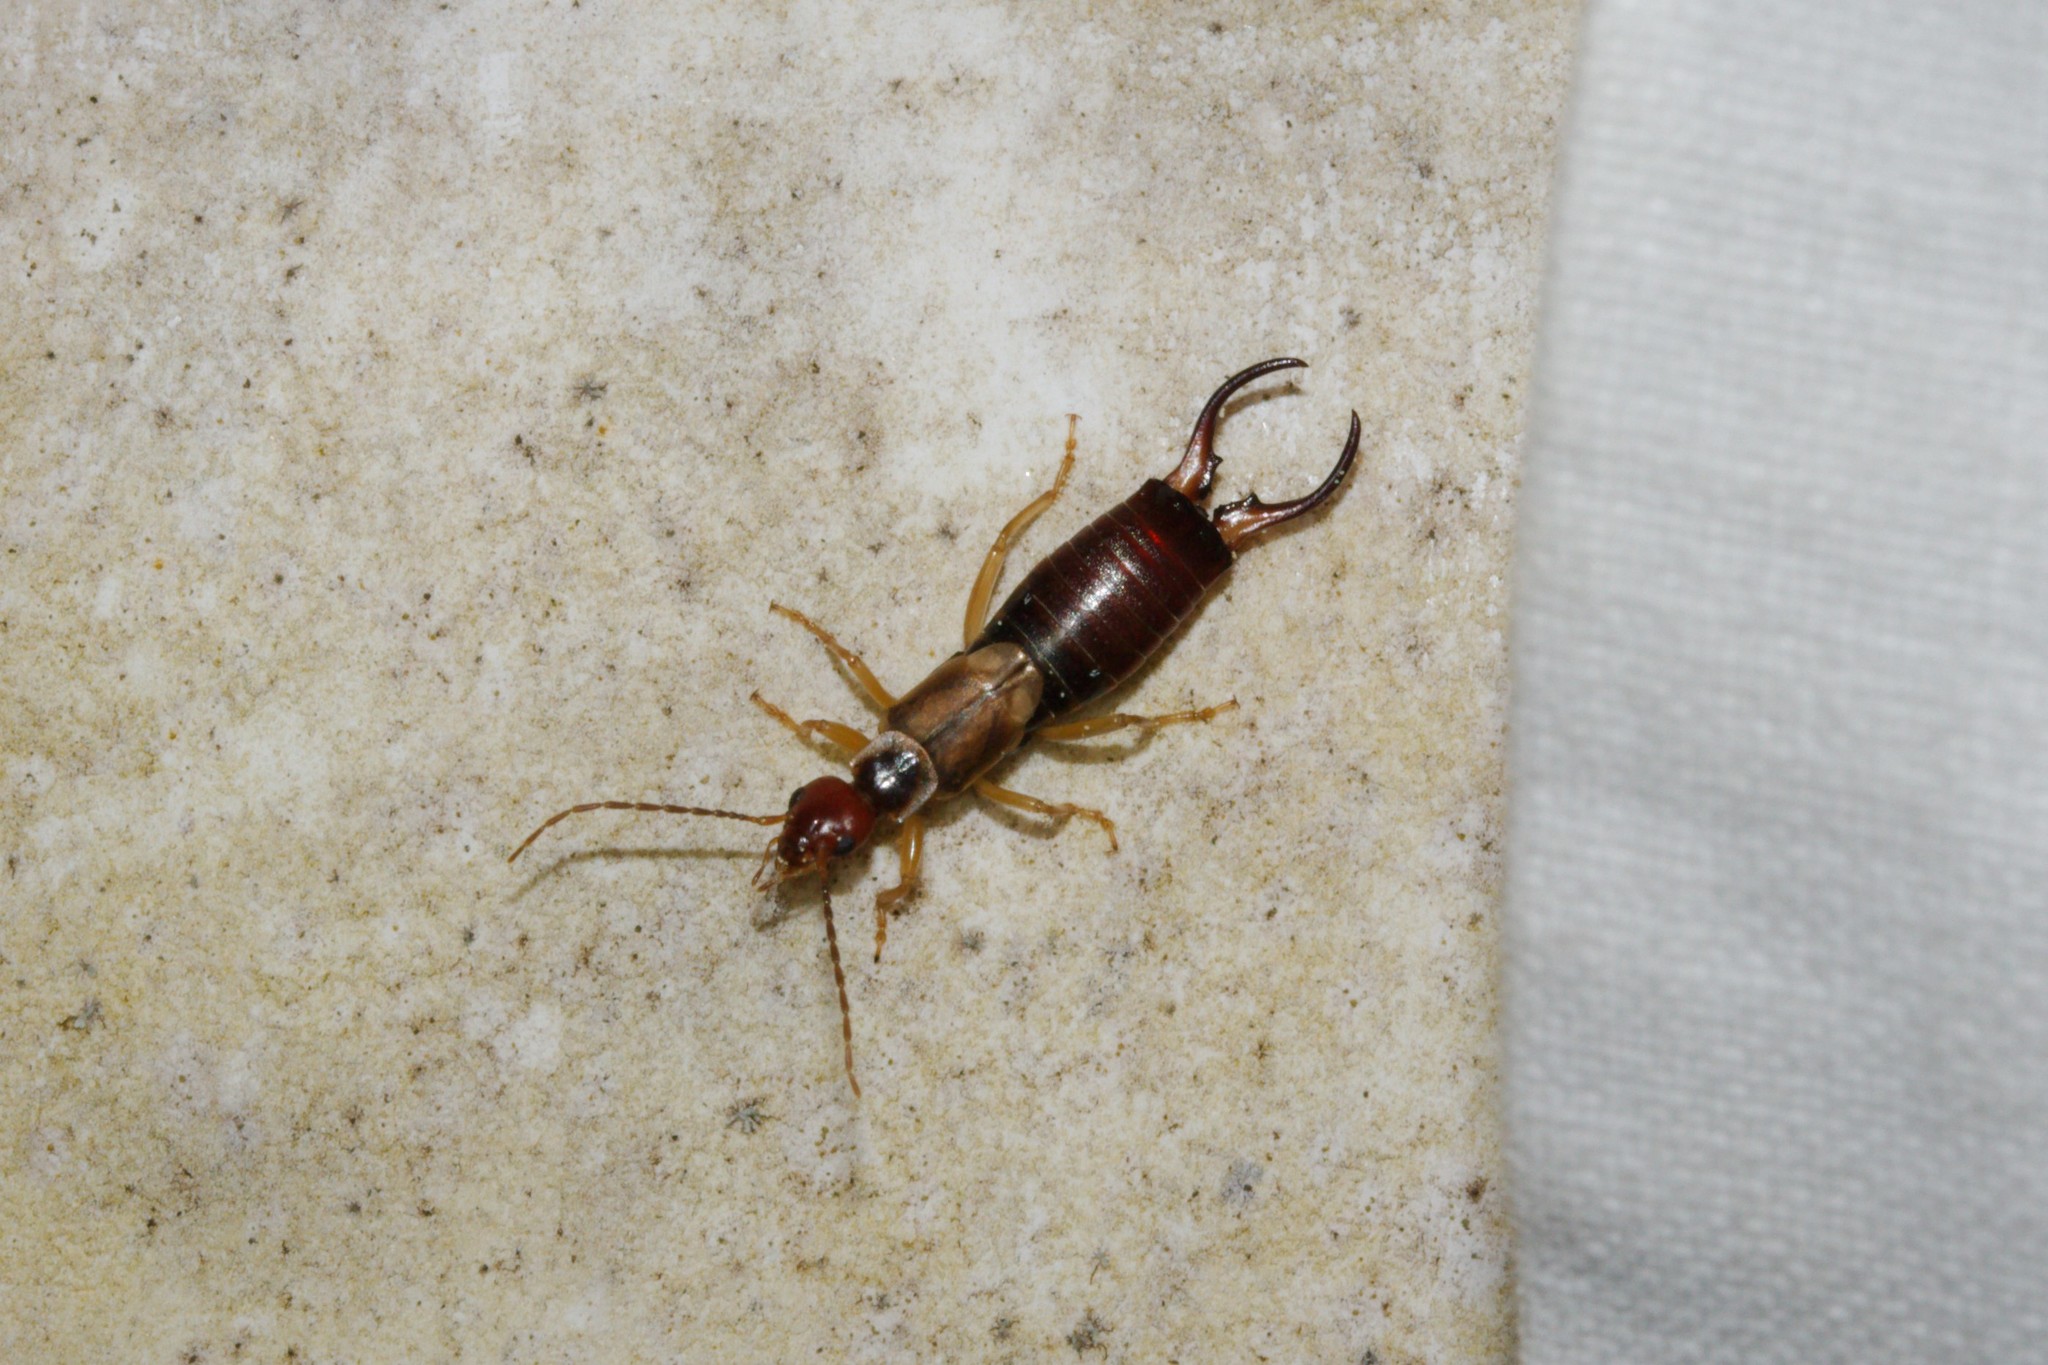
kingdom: Animalia
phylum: Arthropoda
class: Insecta
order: Dermaptera
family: Forficulidae
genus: Forficula
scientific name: Forficula
